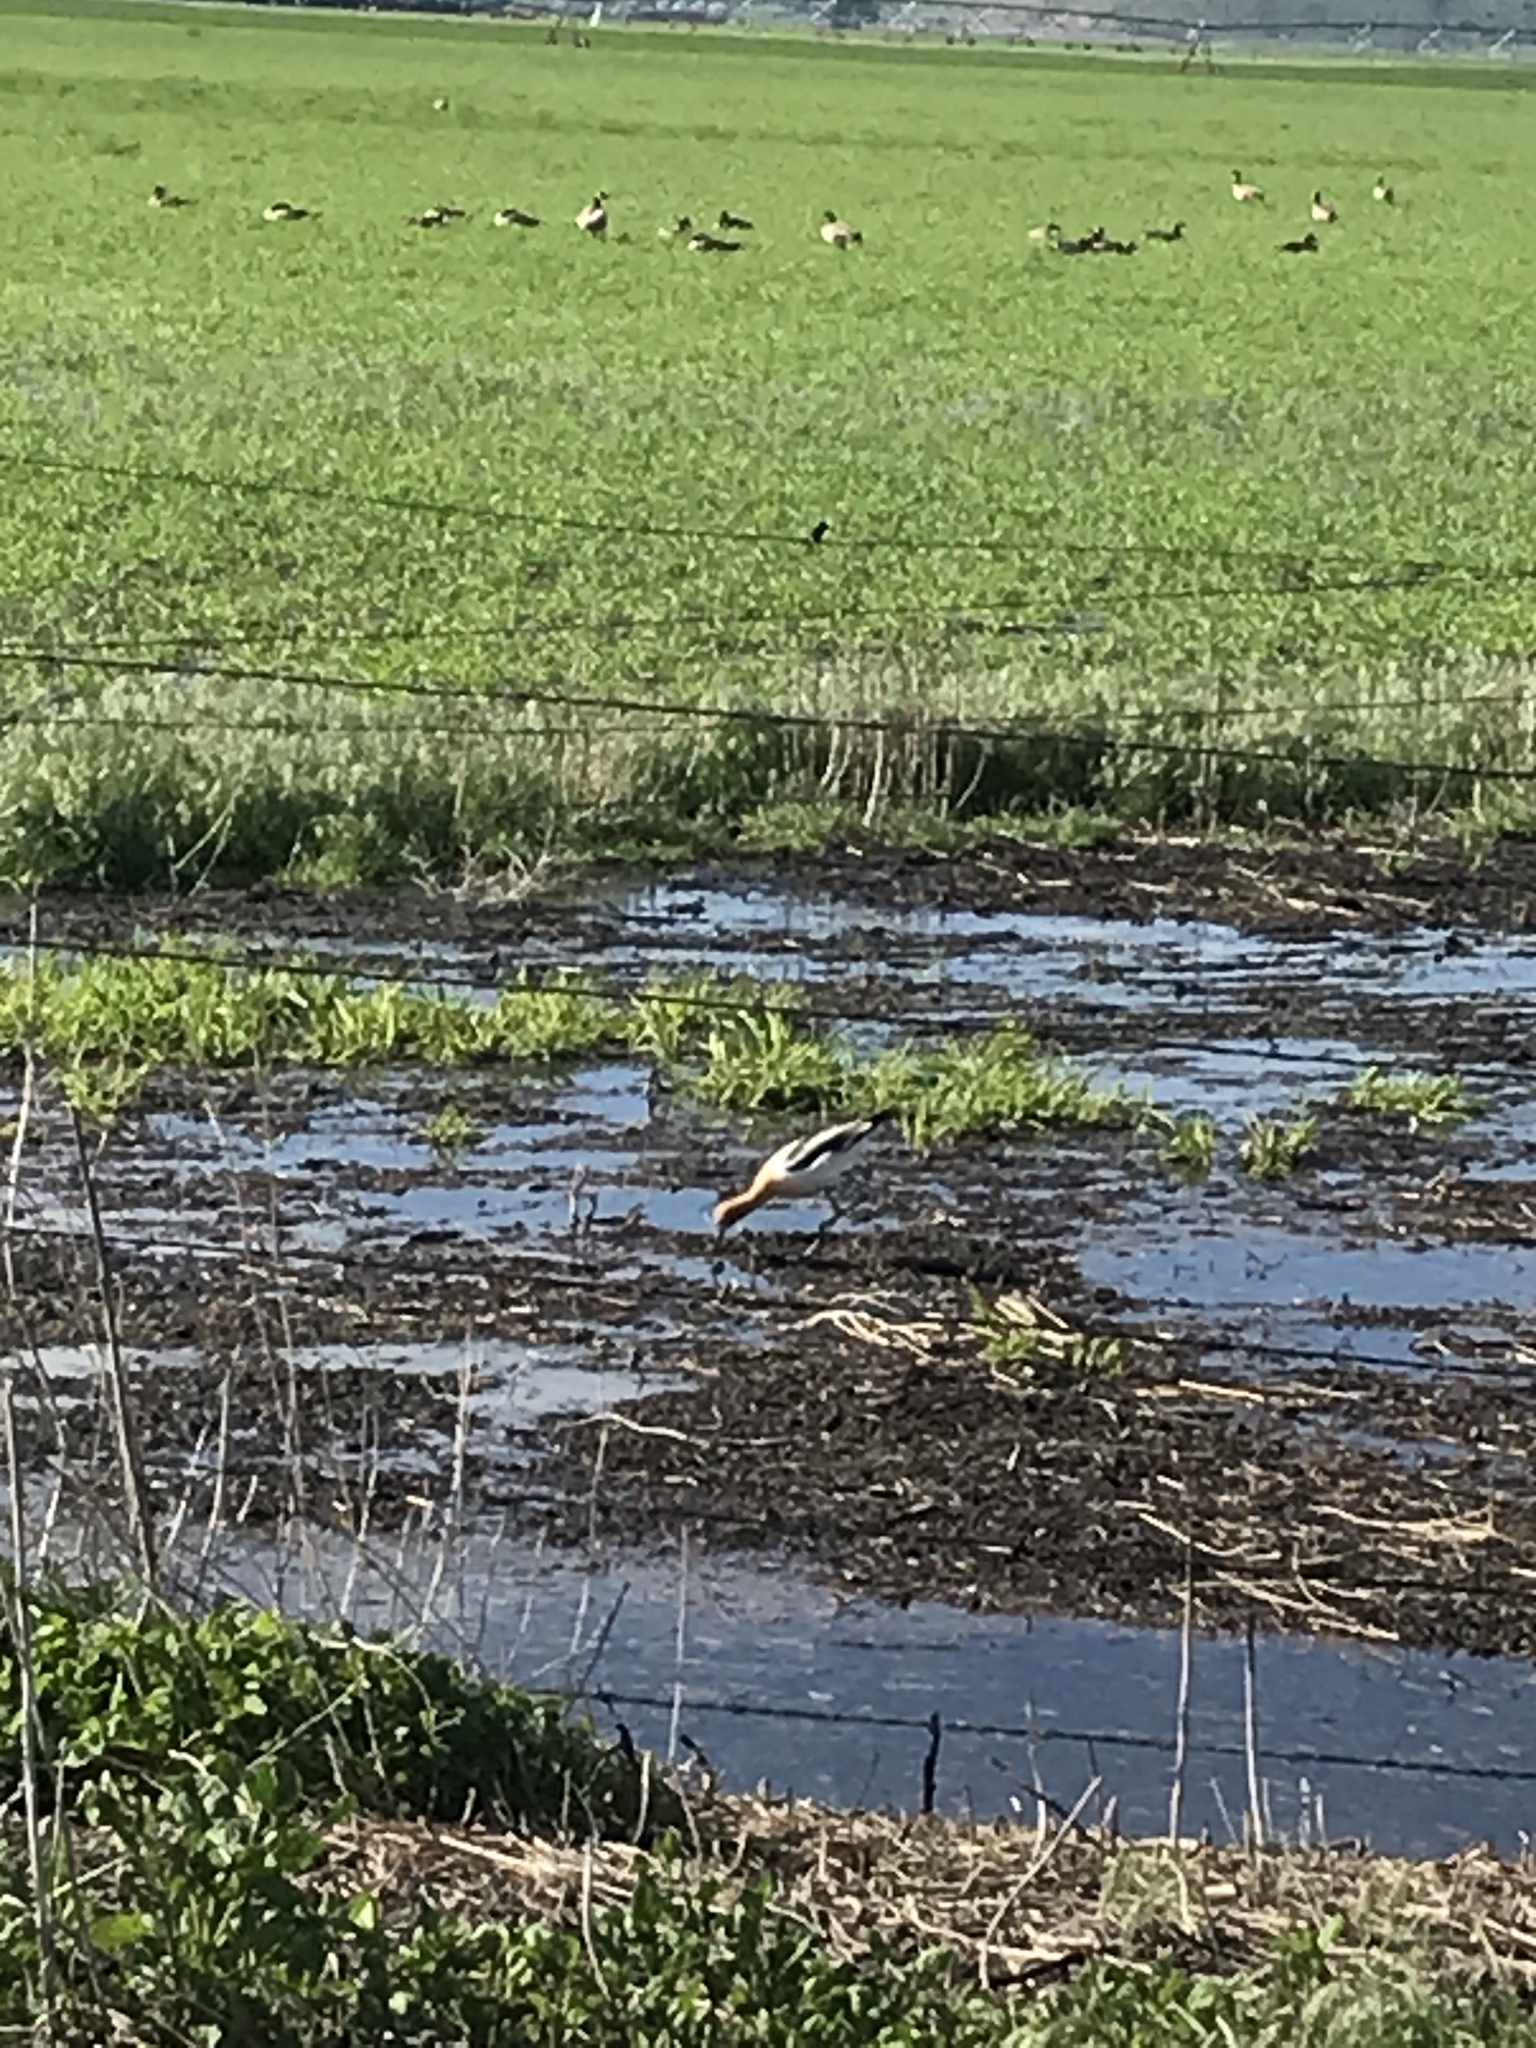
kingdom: Animalia
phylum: Chordata
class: Aves
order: Charadriiformes
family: Recurvirostridae
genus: Recurvirostra
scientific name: Recurvirostra americana
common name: American avocet
